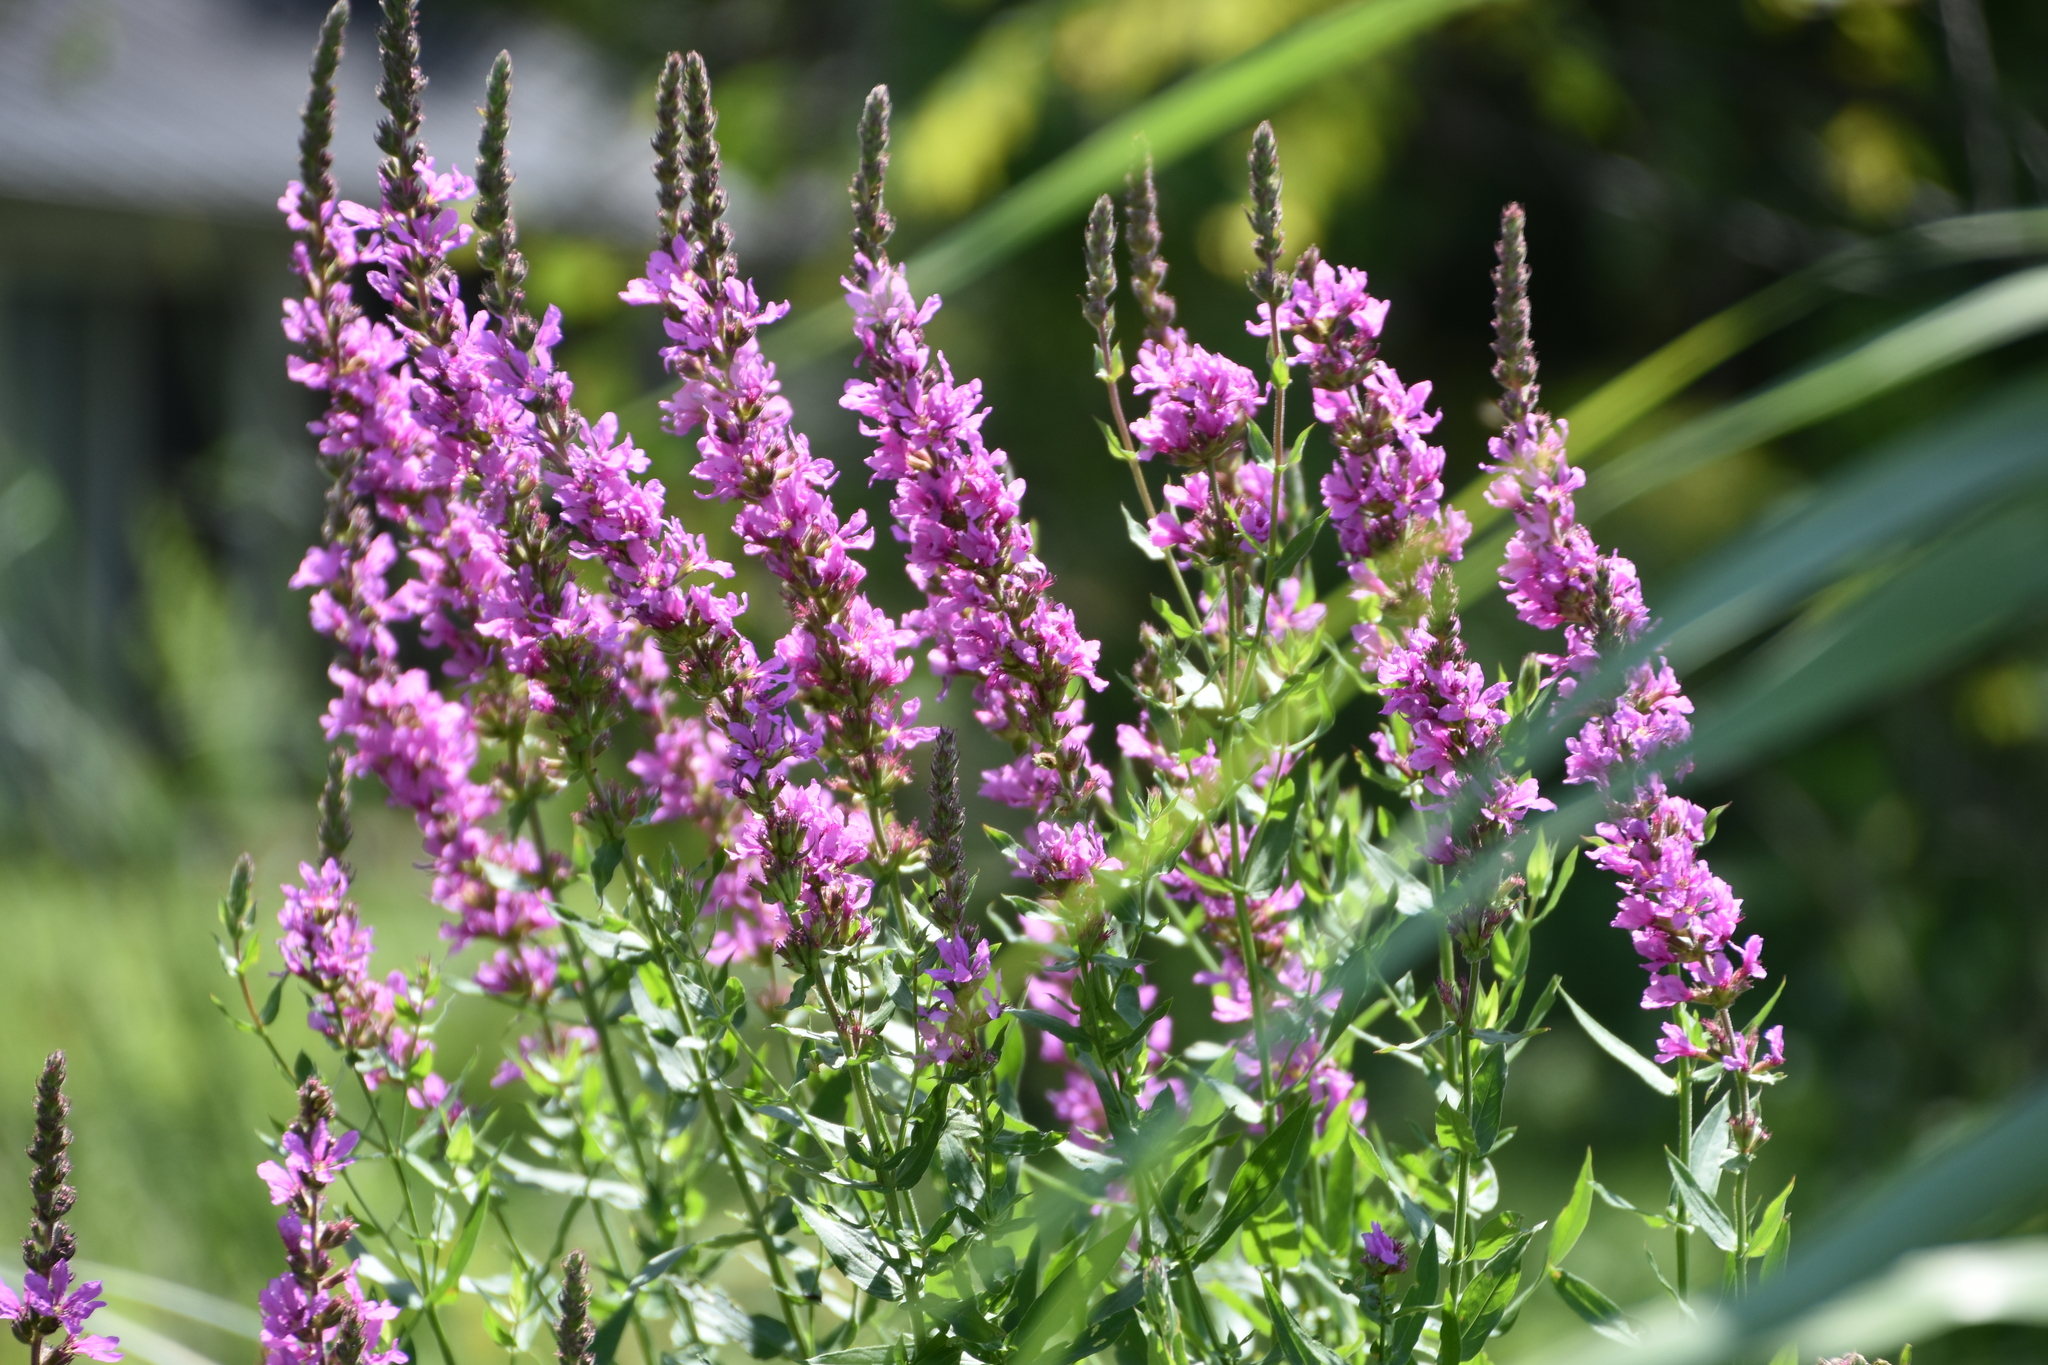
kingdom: Plantae
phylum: Tracheophyta
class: Magnoliopsida
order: Myrtales
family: Lythraceae
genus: Lythrum
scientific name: Lythrum salicaria
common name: Purple loosestrife
